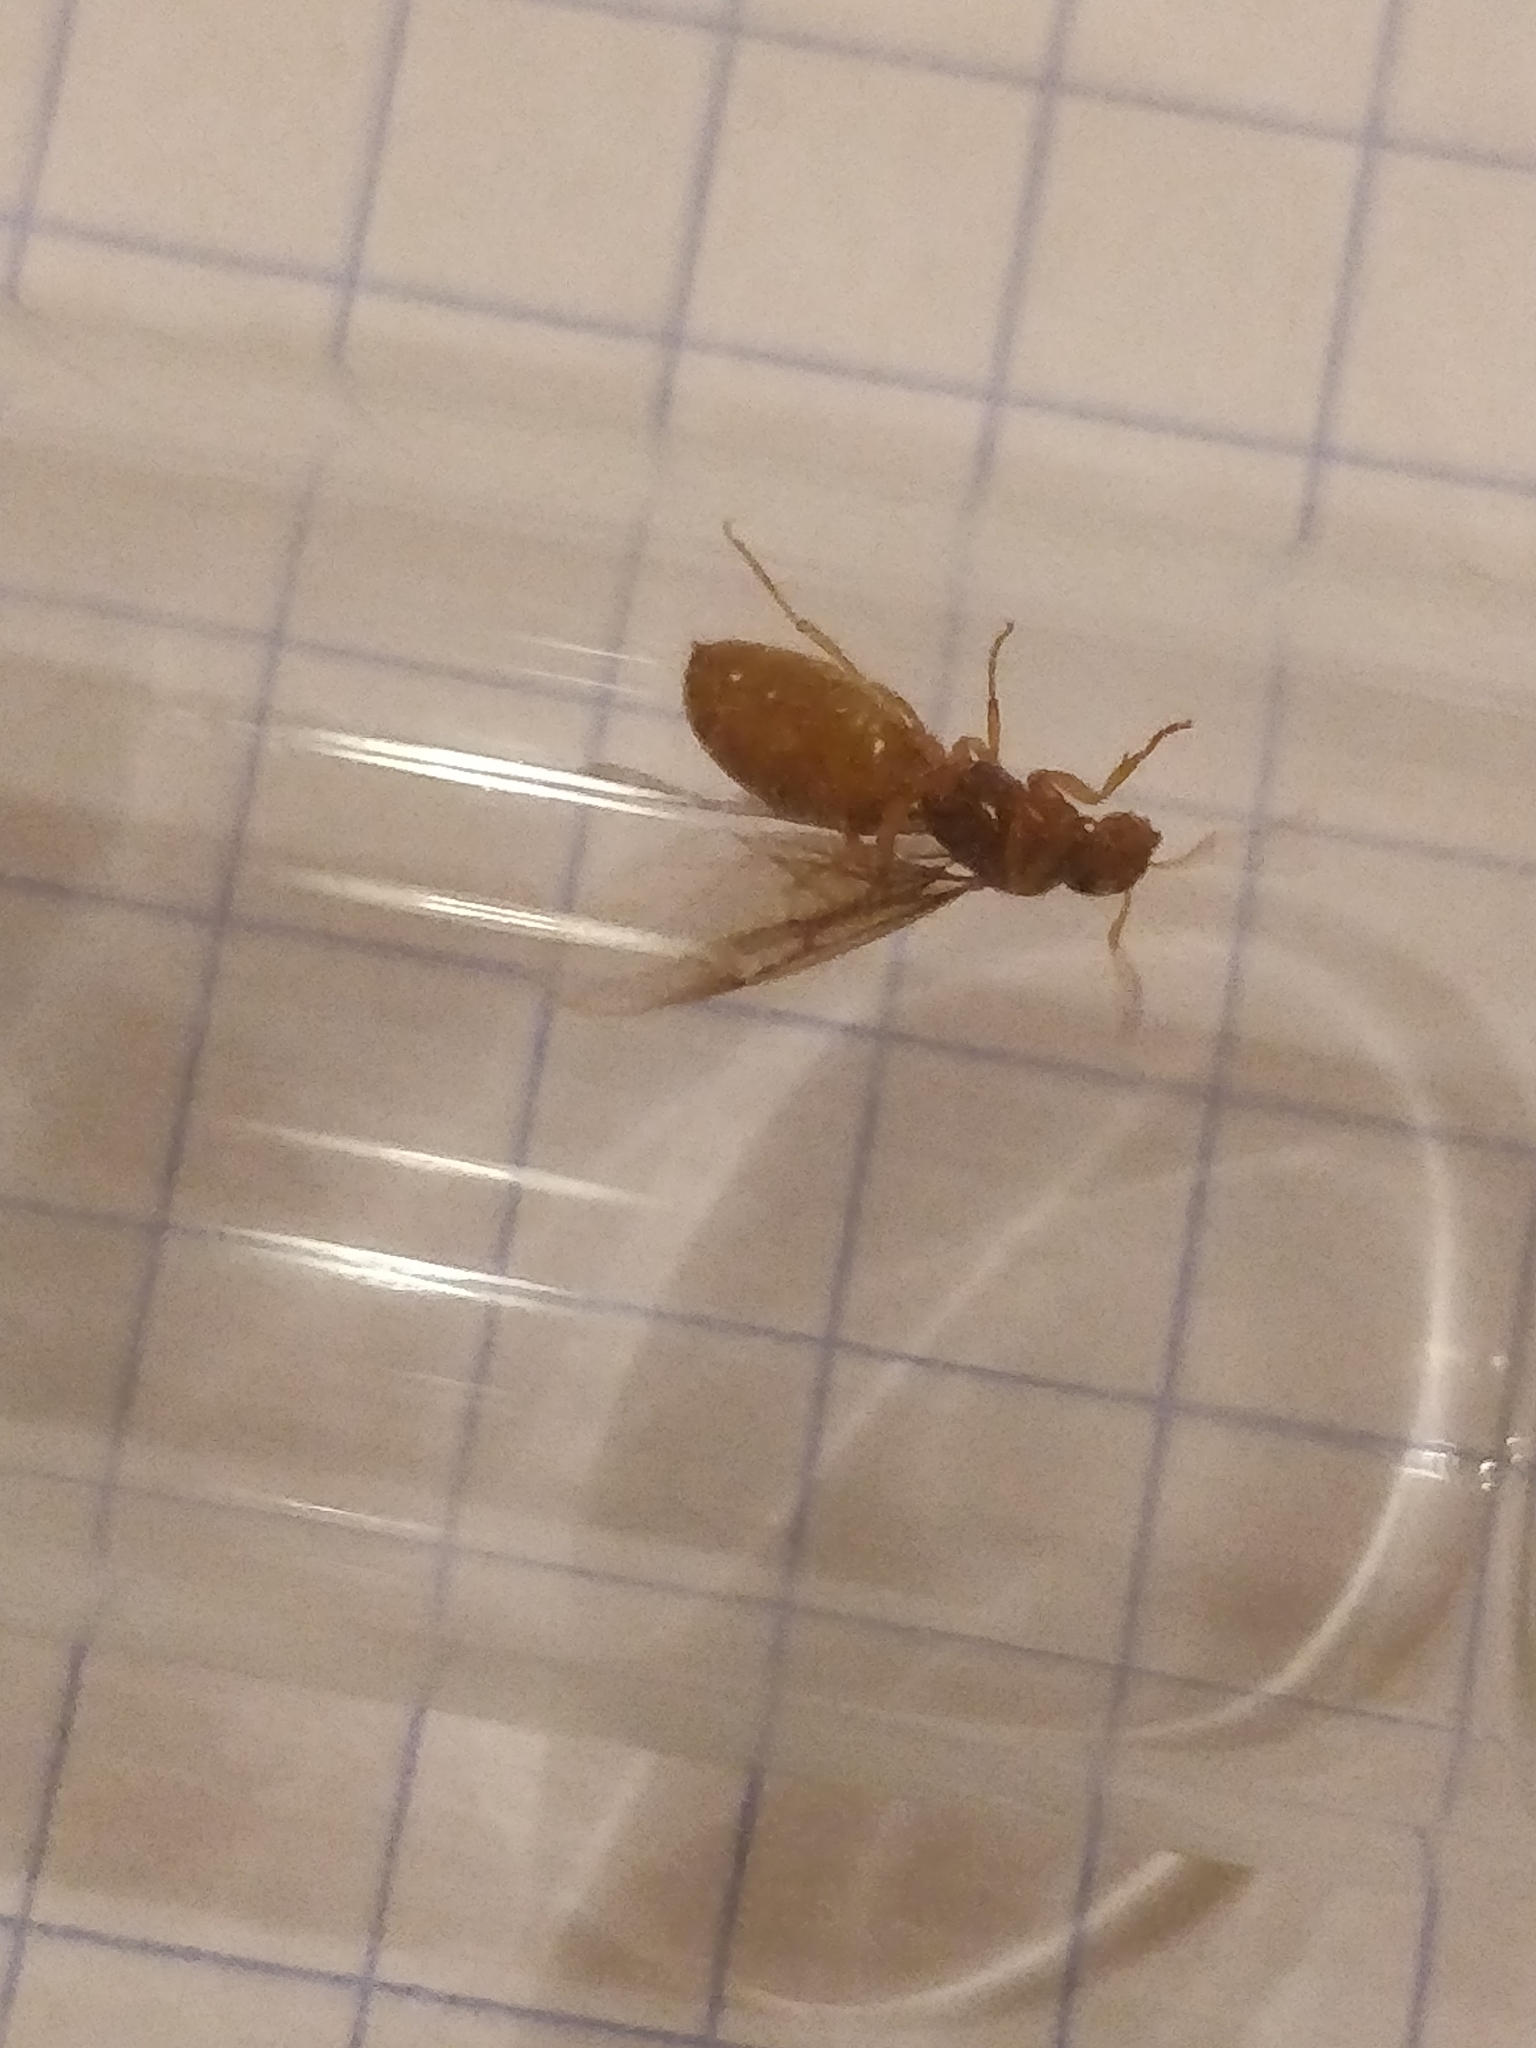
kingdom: Animalia
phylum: Arthropoda
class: Insecta
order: Hymenoptera
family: Formicidae
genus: Lasius
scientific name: Lasius
